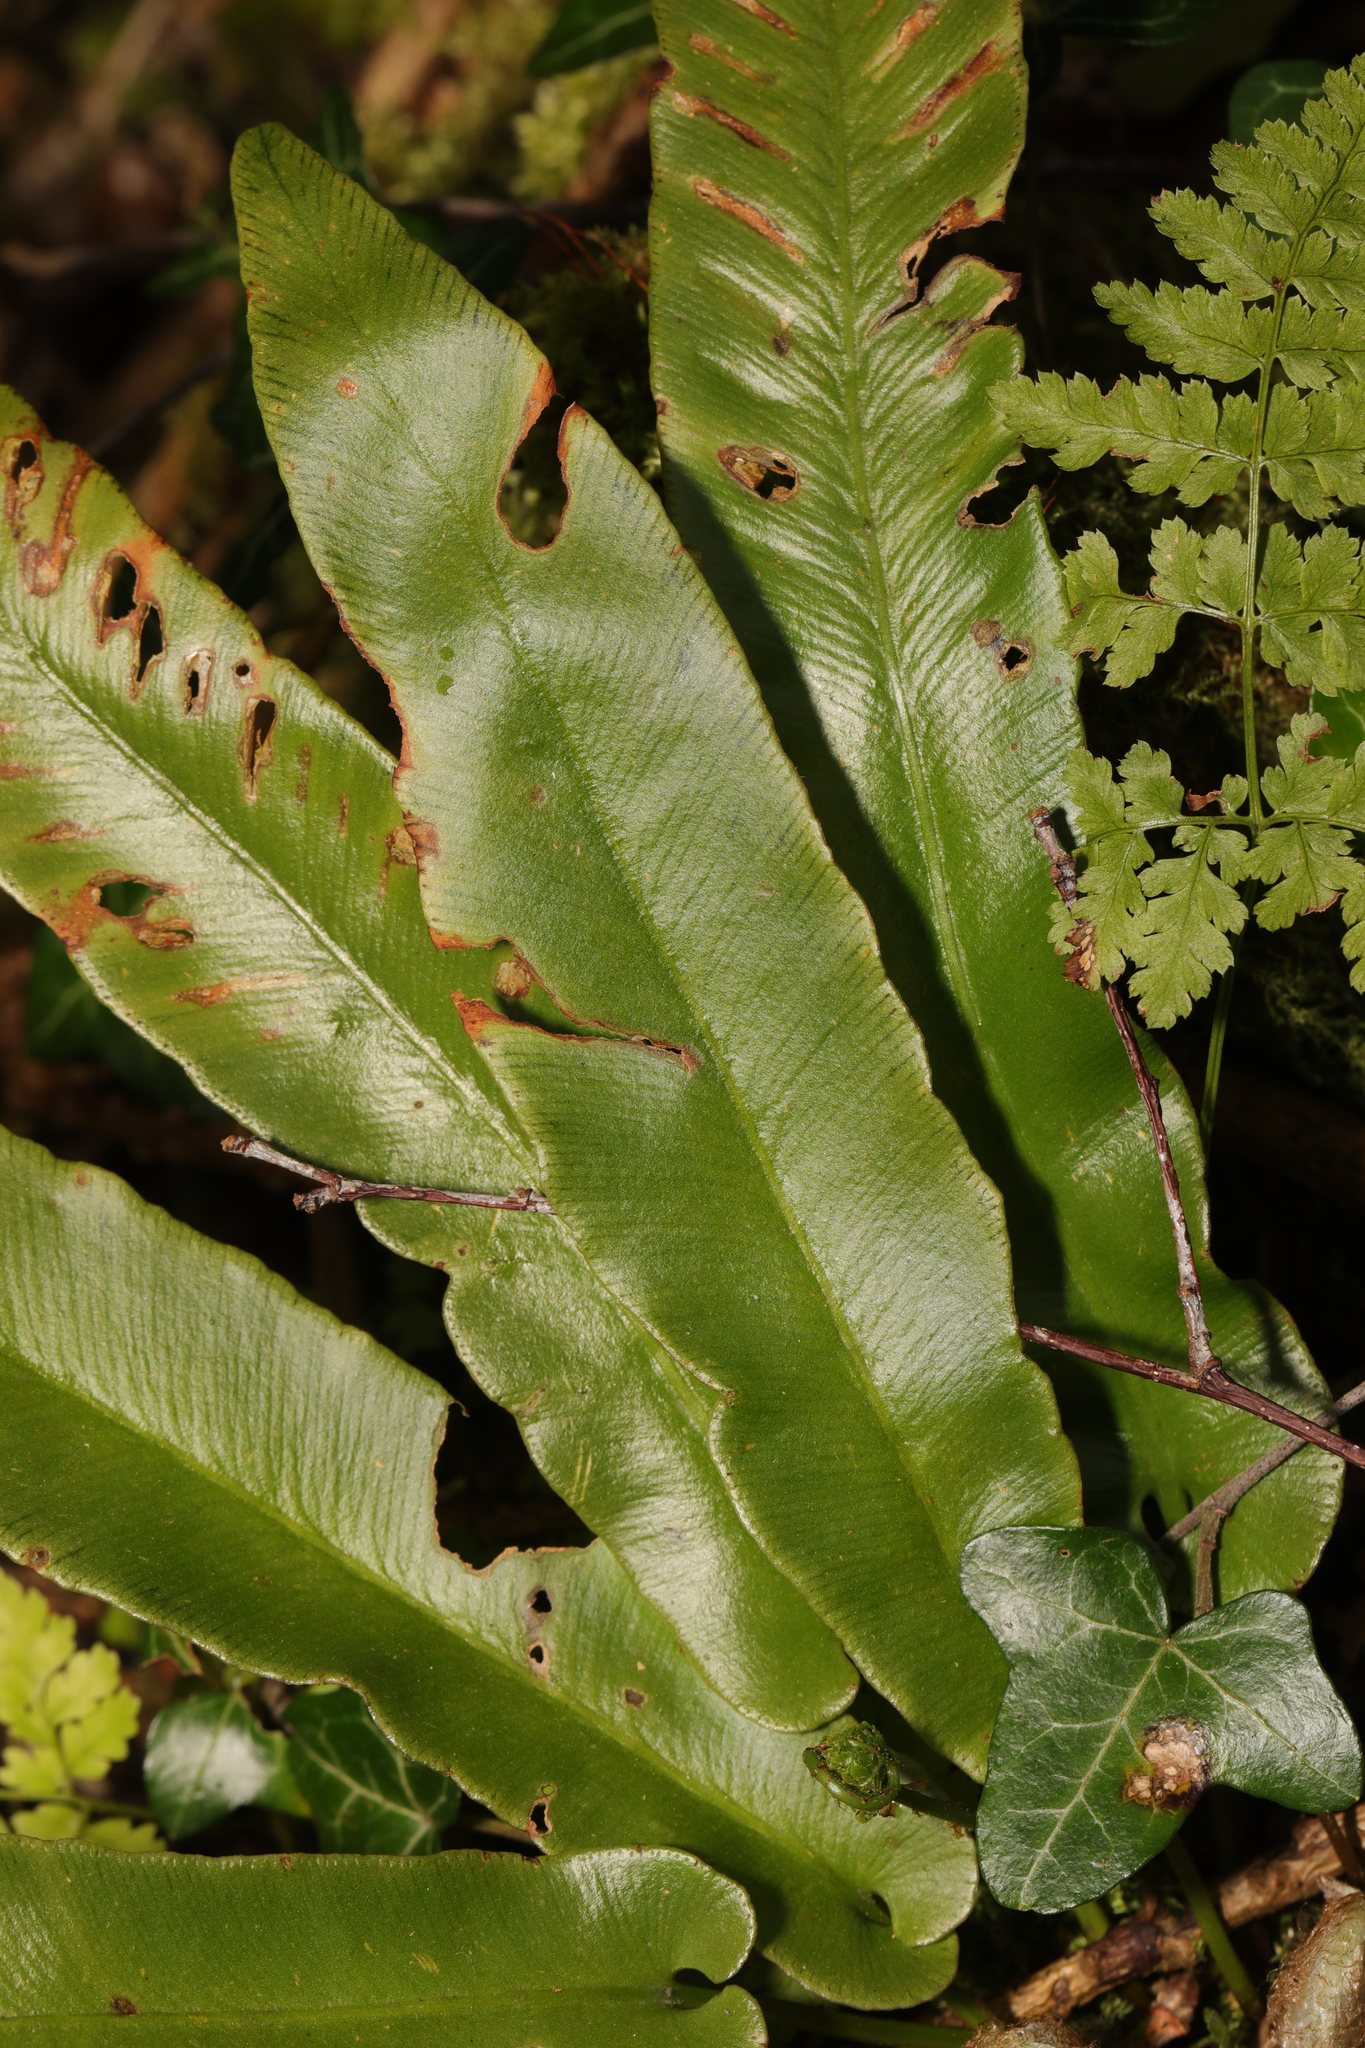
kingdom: Plantae
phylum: Tracheophyta
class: Polypodiopsida
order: Polypodiales
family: Aspleniaceae
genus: Asplenium
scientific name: Asplenium scolopendrium
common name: Hart's-tongue fern
